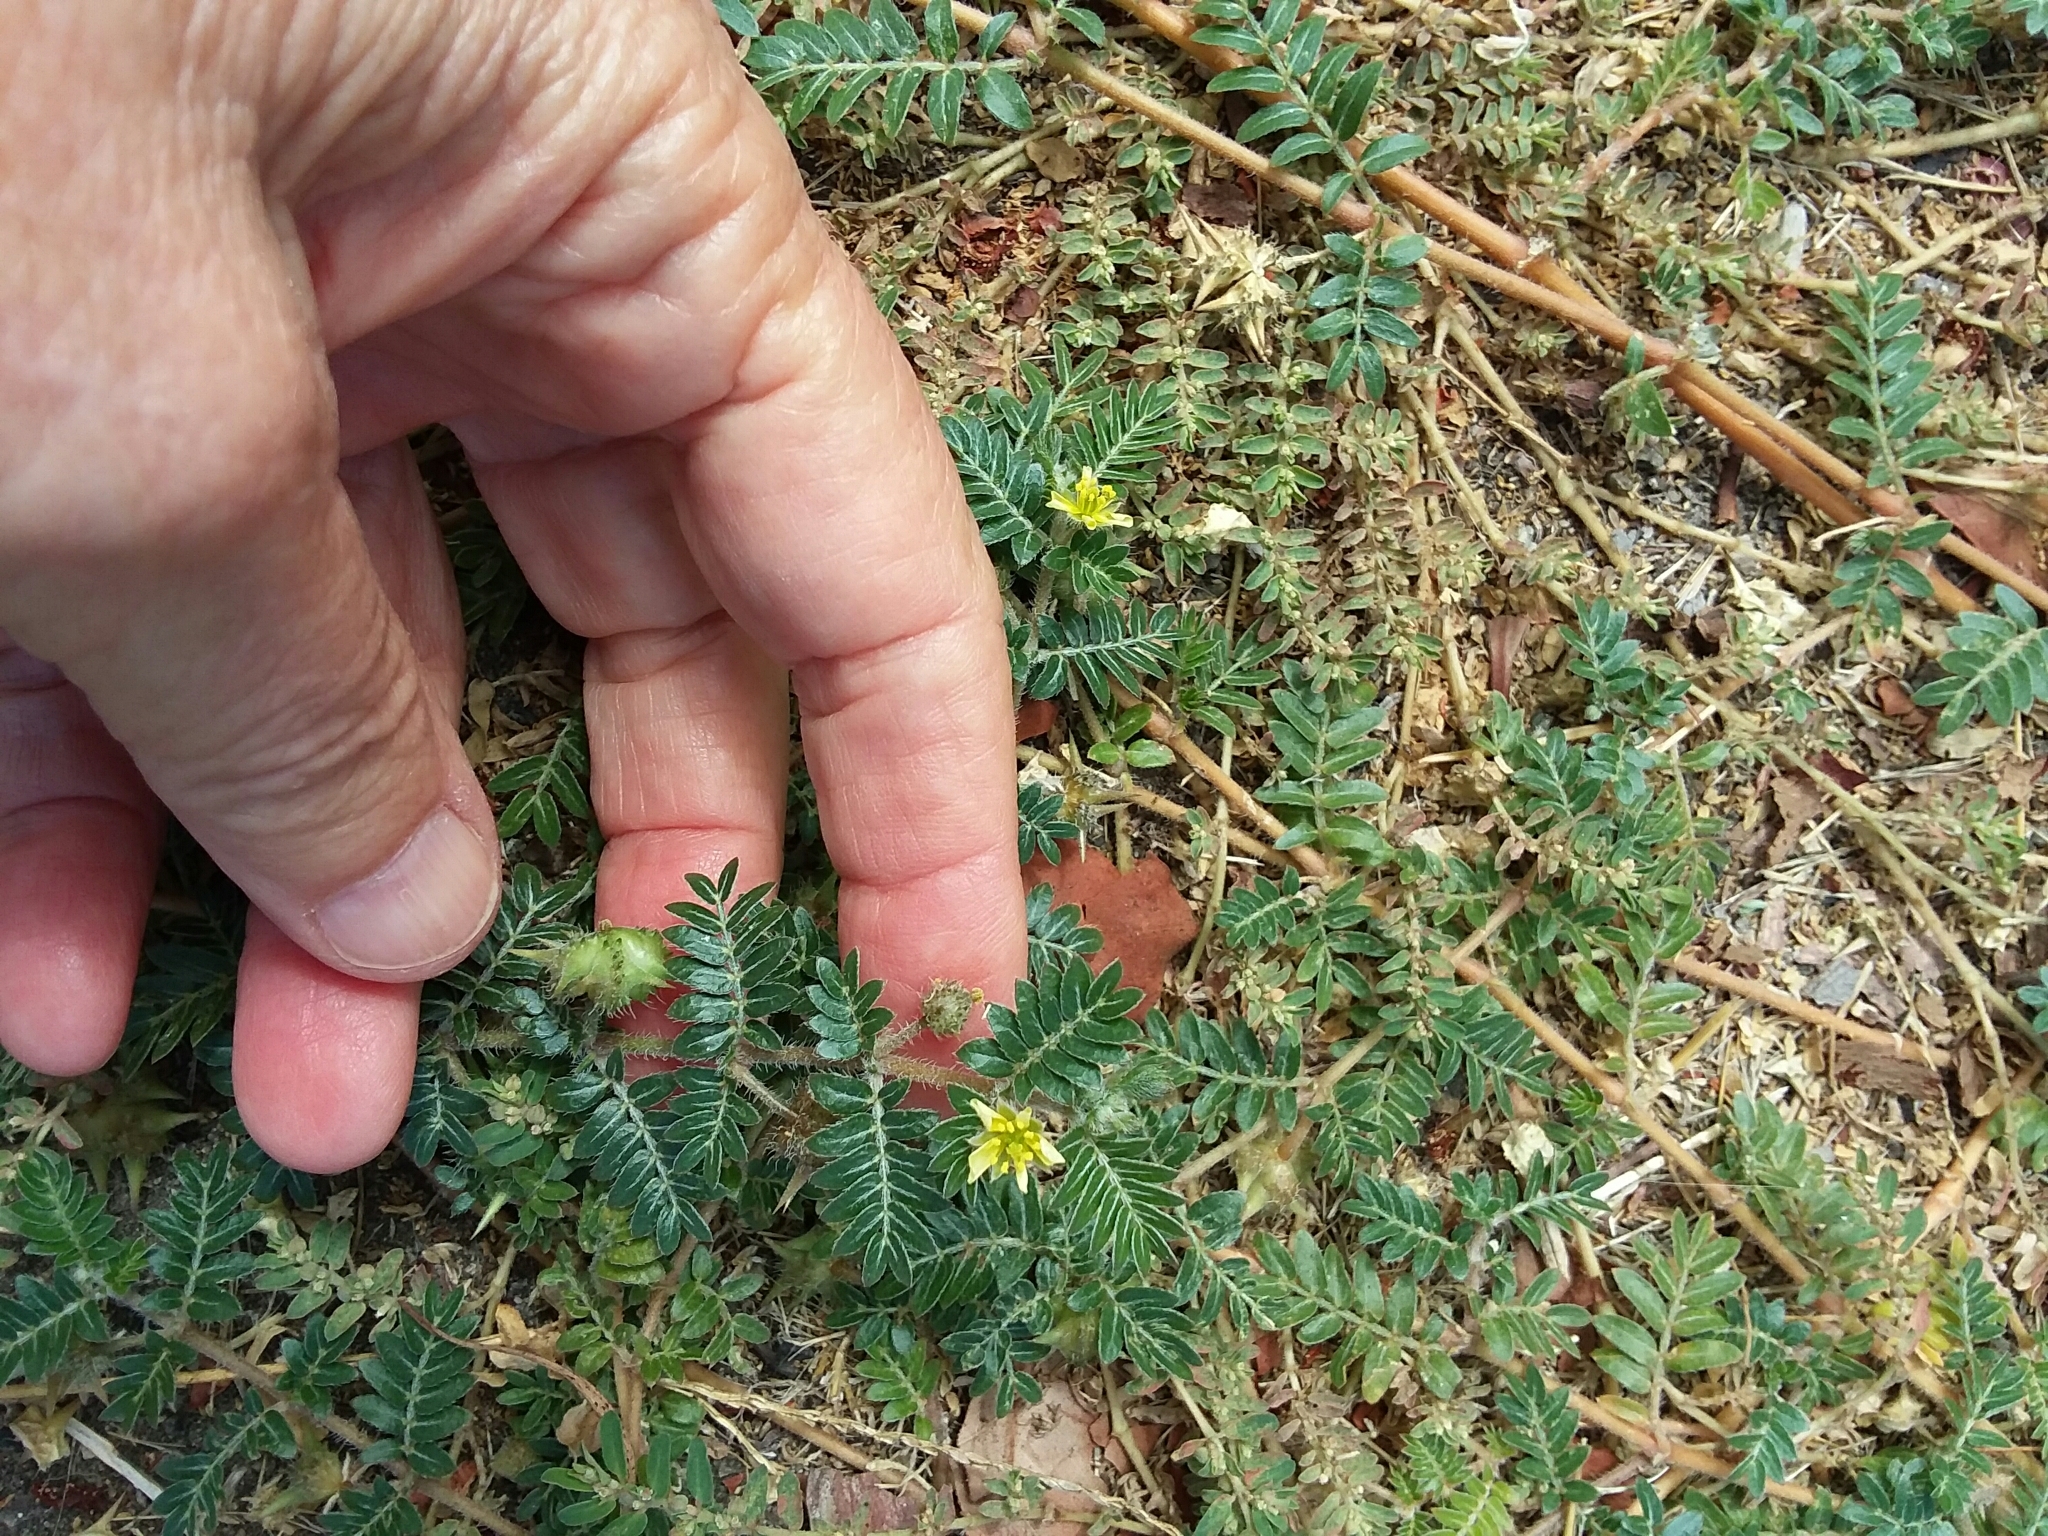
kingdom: Plantae
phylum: Tracheophyta
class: Magnoliopsida
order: Zygophyllales
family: Zygophyllaceae
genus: Tribulus
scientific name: Tribulus terrestris
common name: Puncturevine
